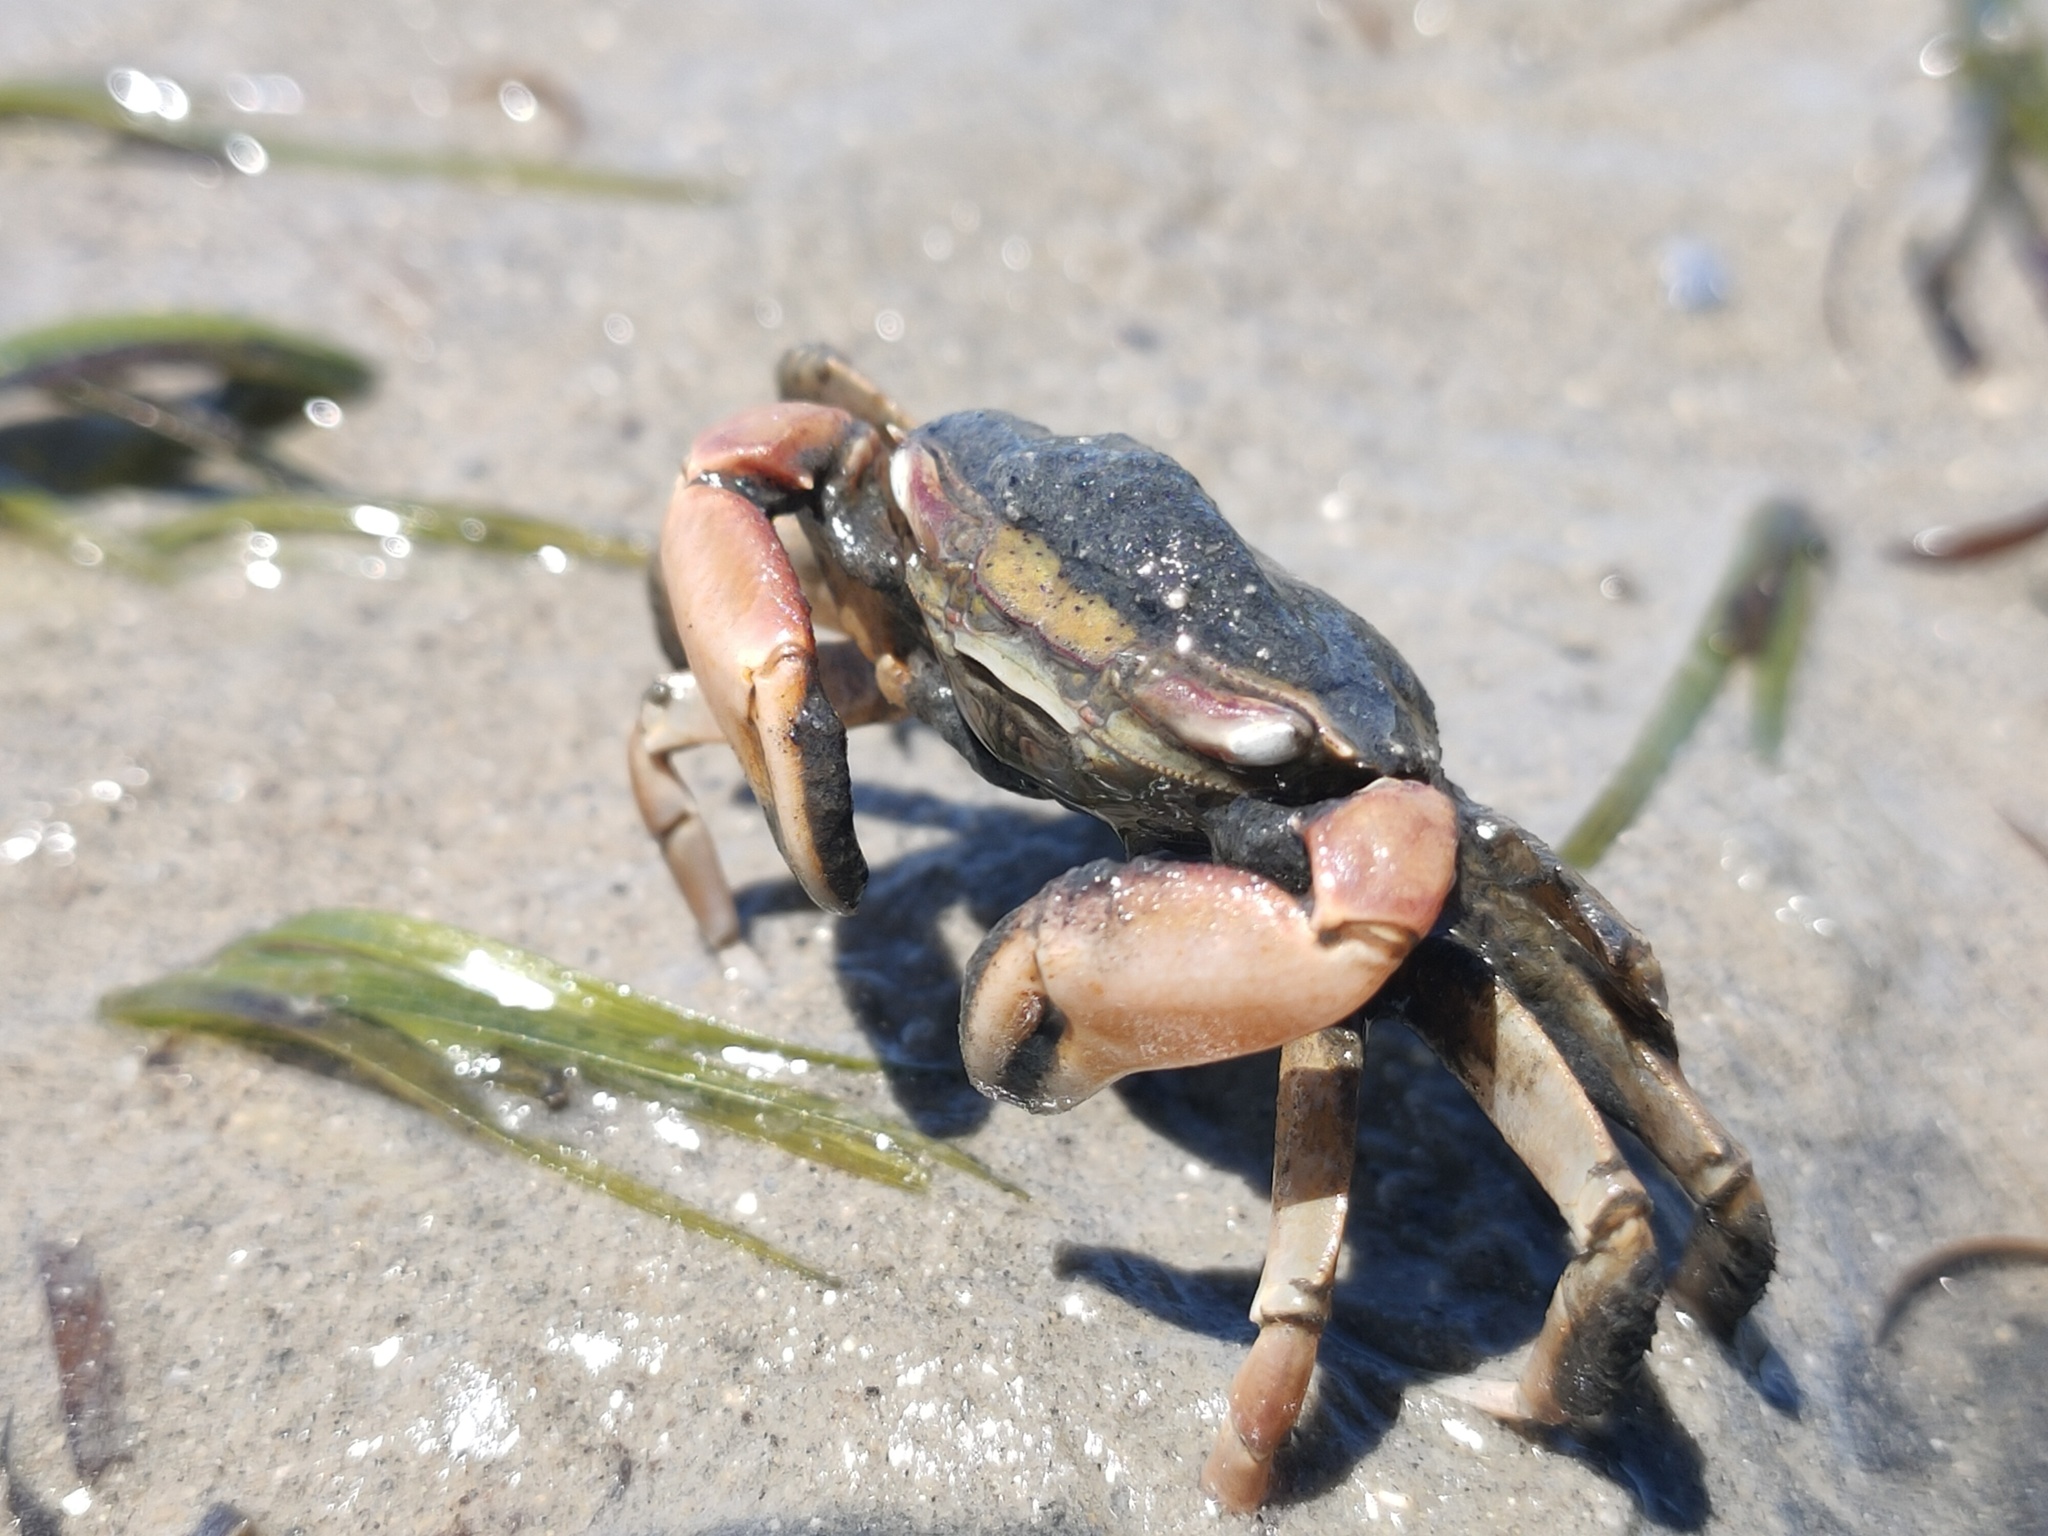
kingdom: Animalia
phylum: Arthropoda
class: Malacostraca
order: Decapoda
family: Macrophthalmidae
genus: Hemiplax
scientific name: Hemiplax hirtipes
